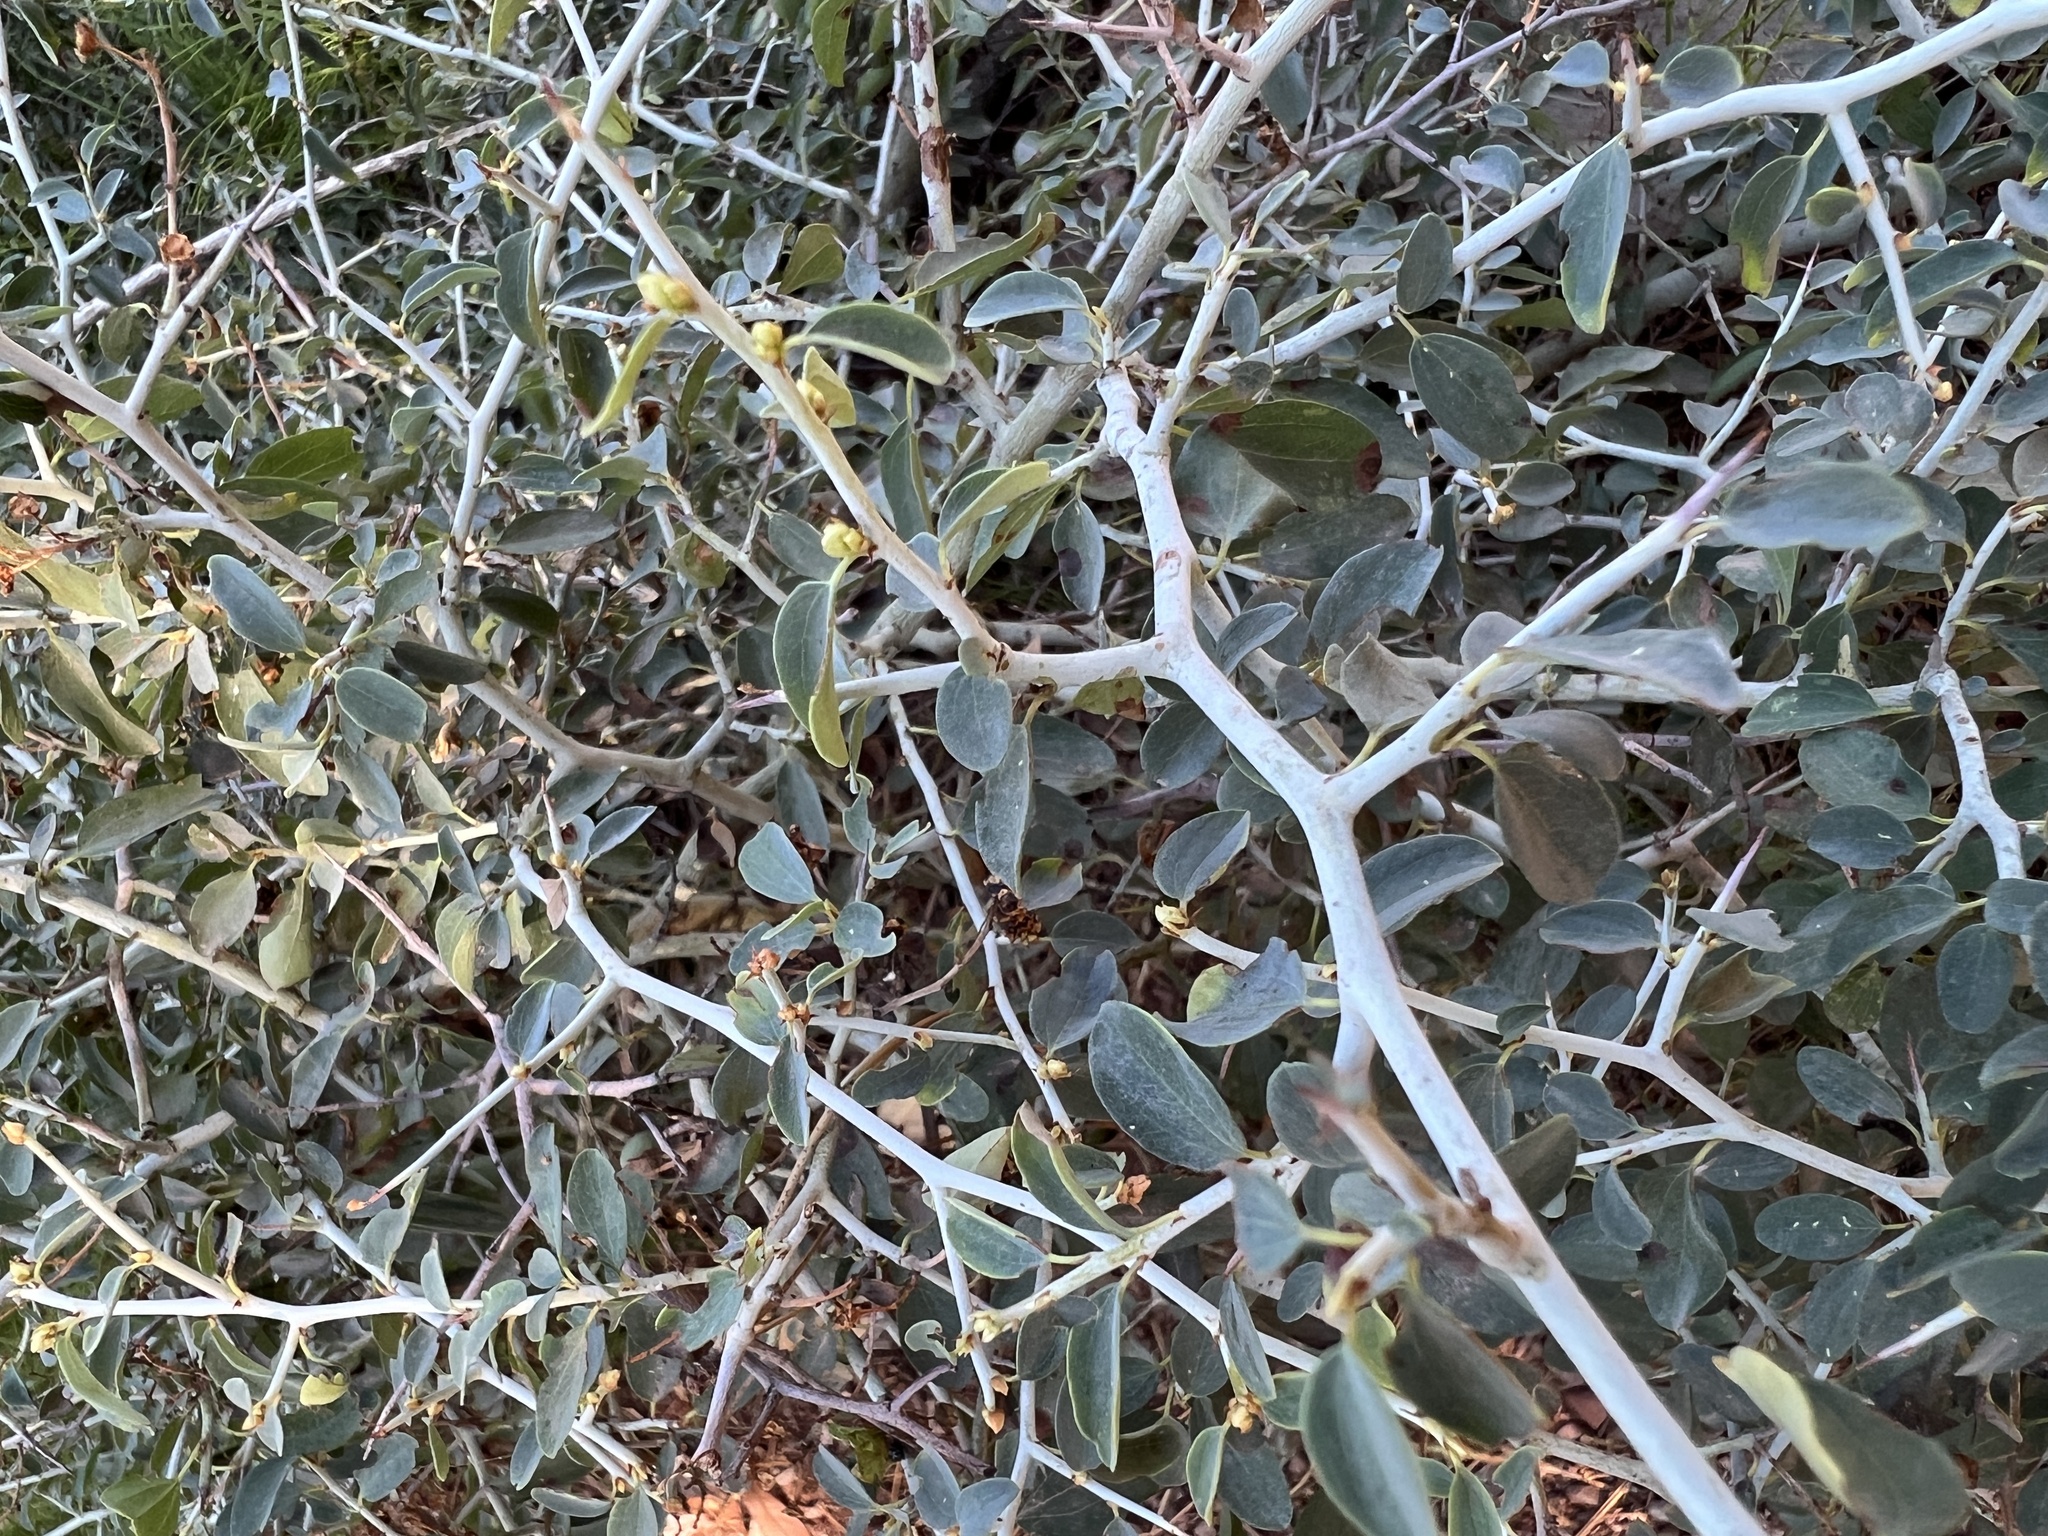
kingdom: Plantae
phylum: Tracheophyta
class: Magnoliopsida
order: Rosales
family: Rhamnaceae
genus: Ceanothus
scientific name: Ceanothus cordulatus
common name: Mountain whitethorn
